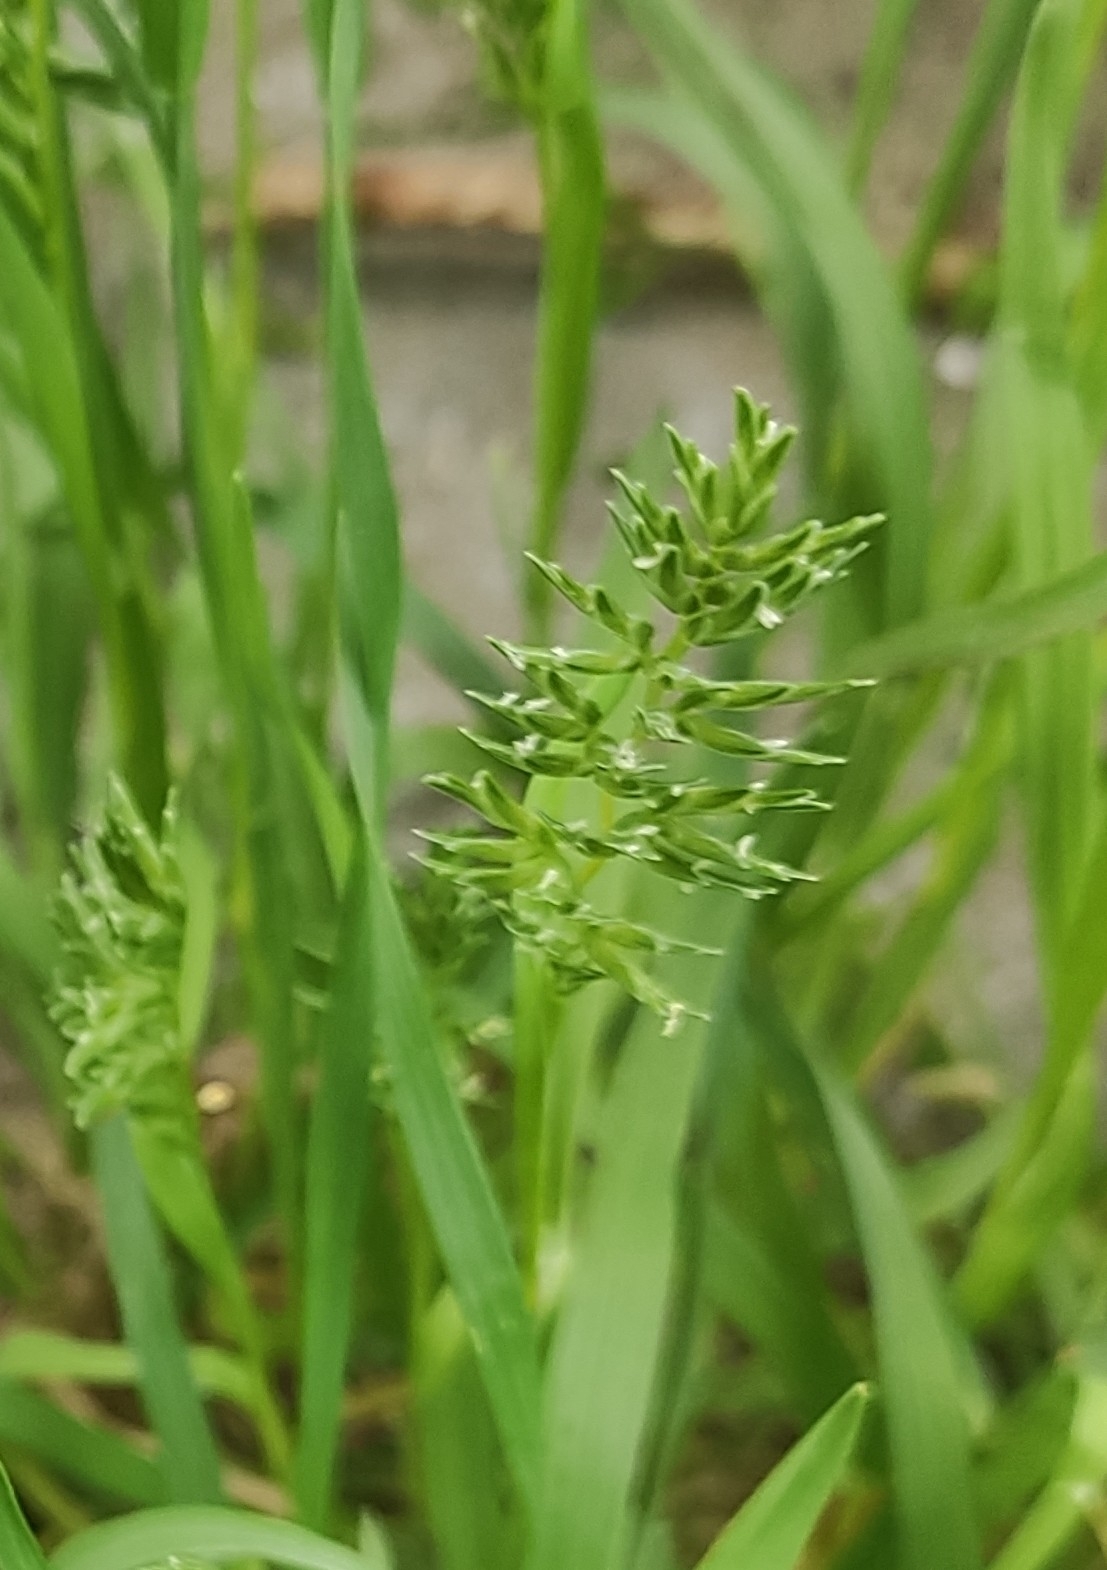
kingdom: Plantae
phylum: Tracheophyta
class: Liliopsida
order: Poales
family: Poaceae
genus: Sclerochloa
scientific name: Sclerochloa dura
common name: Common hardgrass
